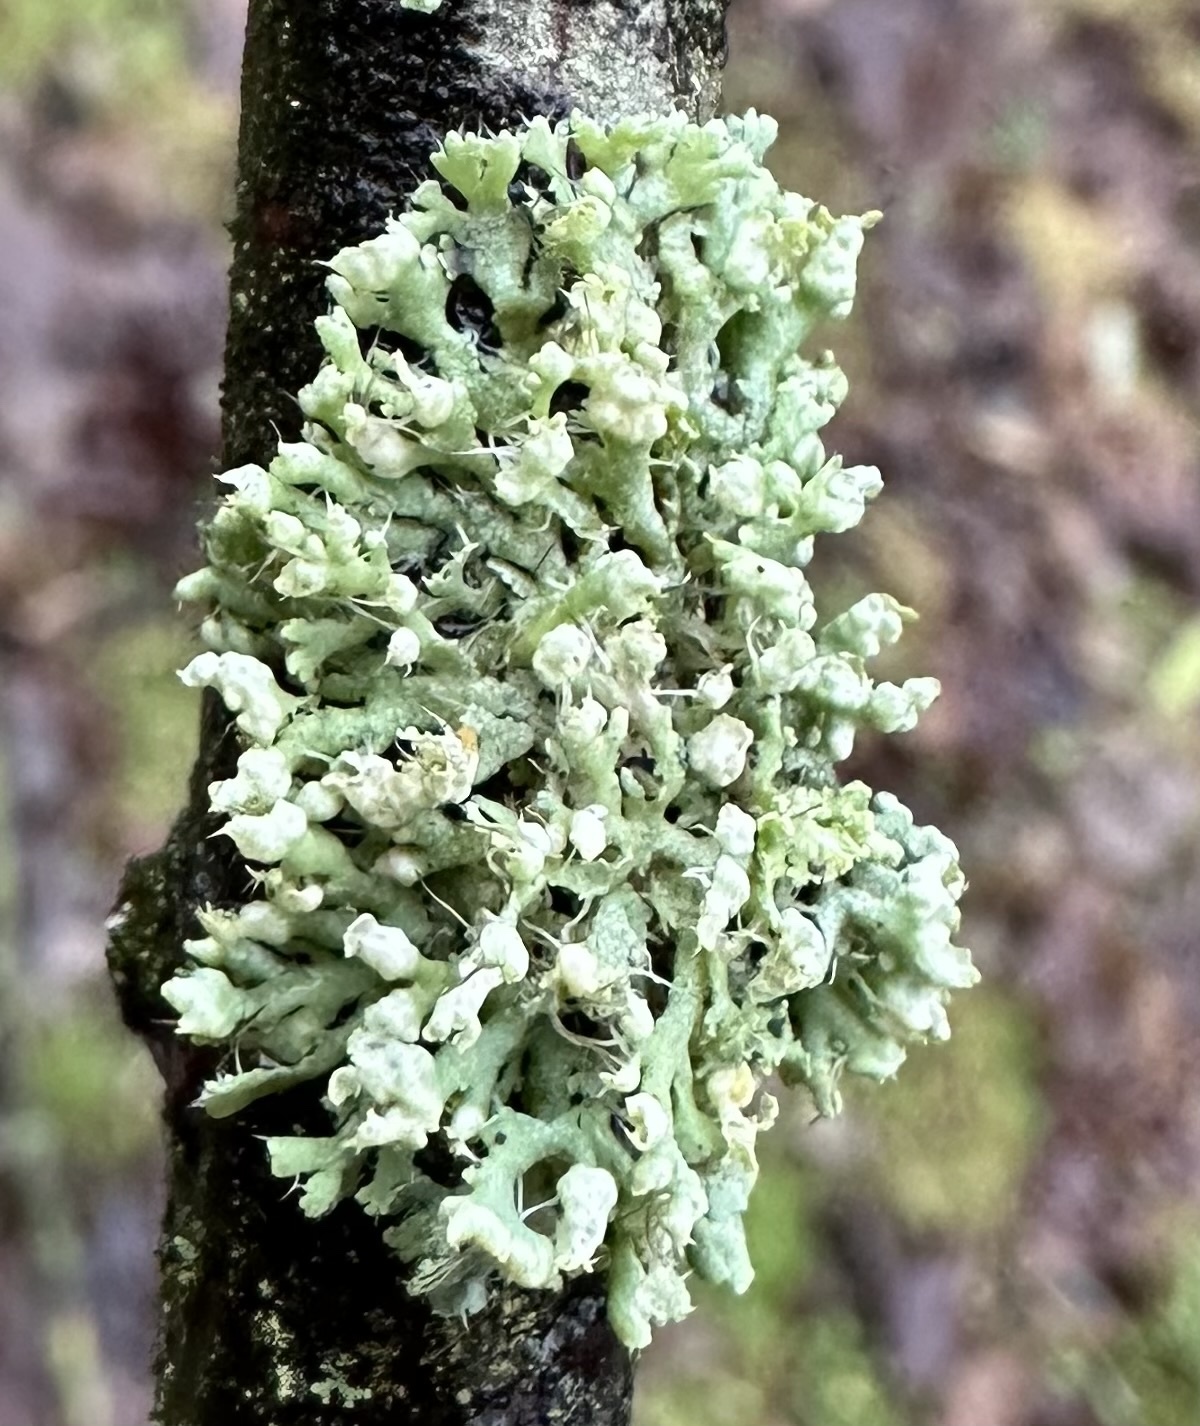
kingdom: Fungi
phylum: Ascomycota
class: Lecanoromycetes
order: Caliciales
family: Physciaceae
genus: Physcia
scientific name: Physcia adscendens
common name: Hooded rosette lichen
